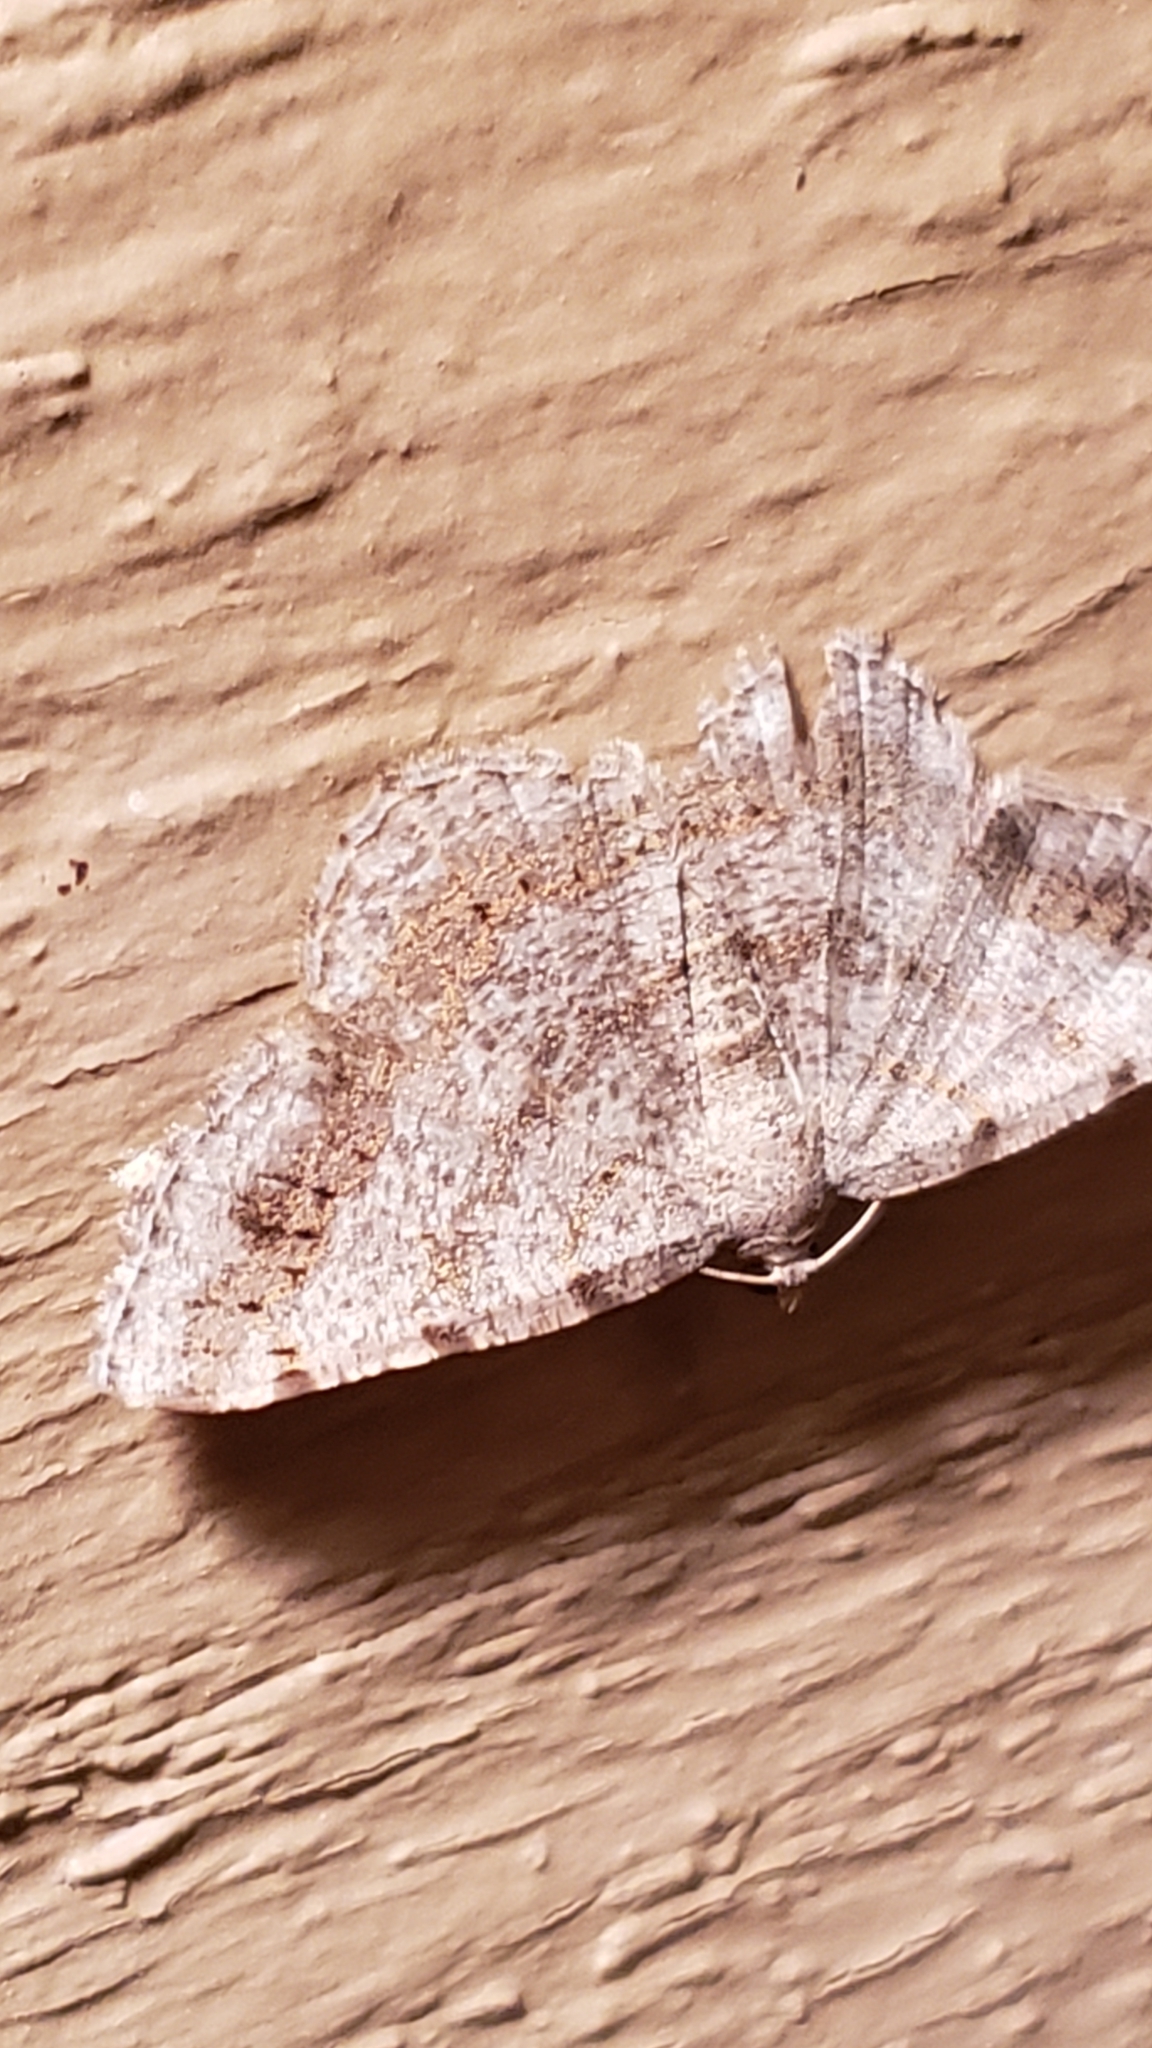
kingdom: Animalia
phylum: Arthropoda
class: Insecta
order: Lepidoptera
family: Geometridae
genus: Digrammia
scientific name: Digrammia ocellinata
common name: Faint-spotted angle
